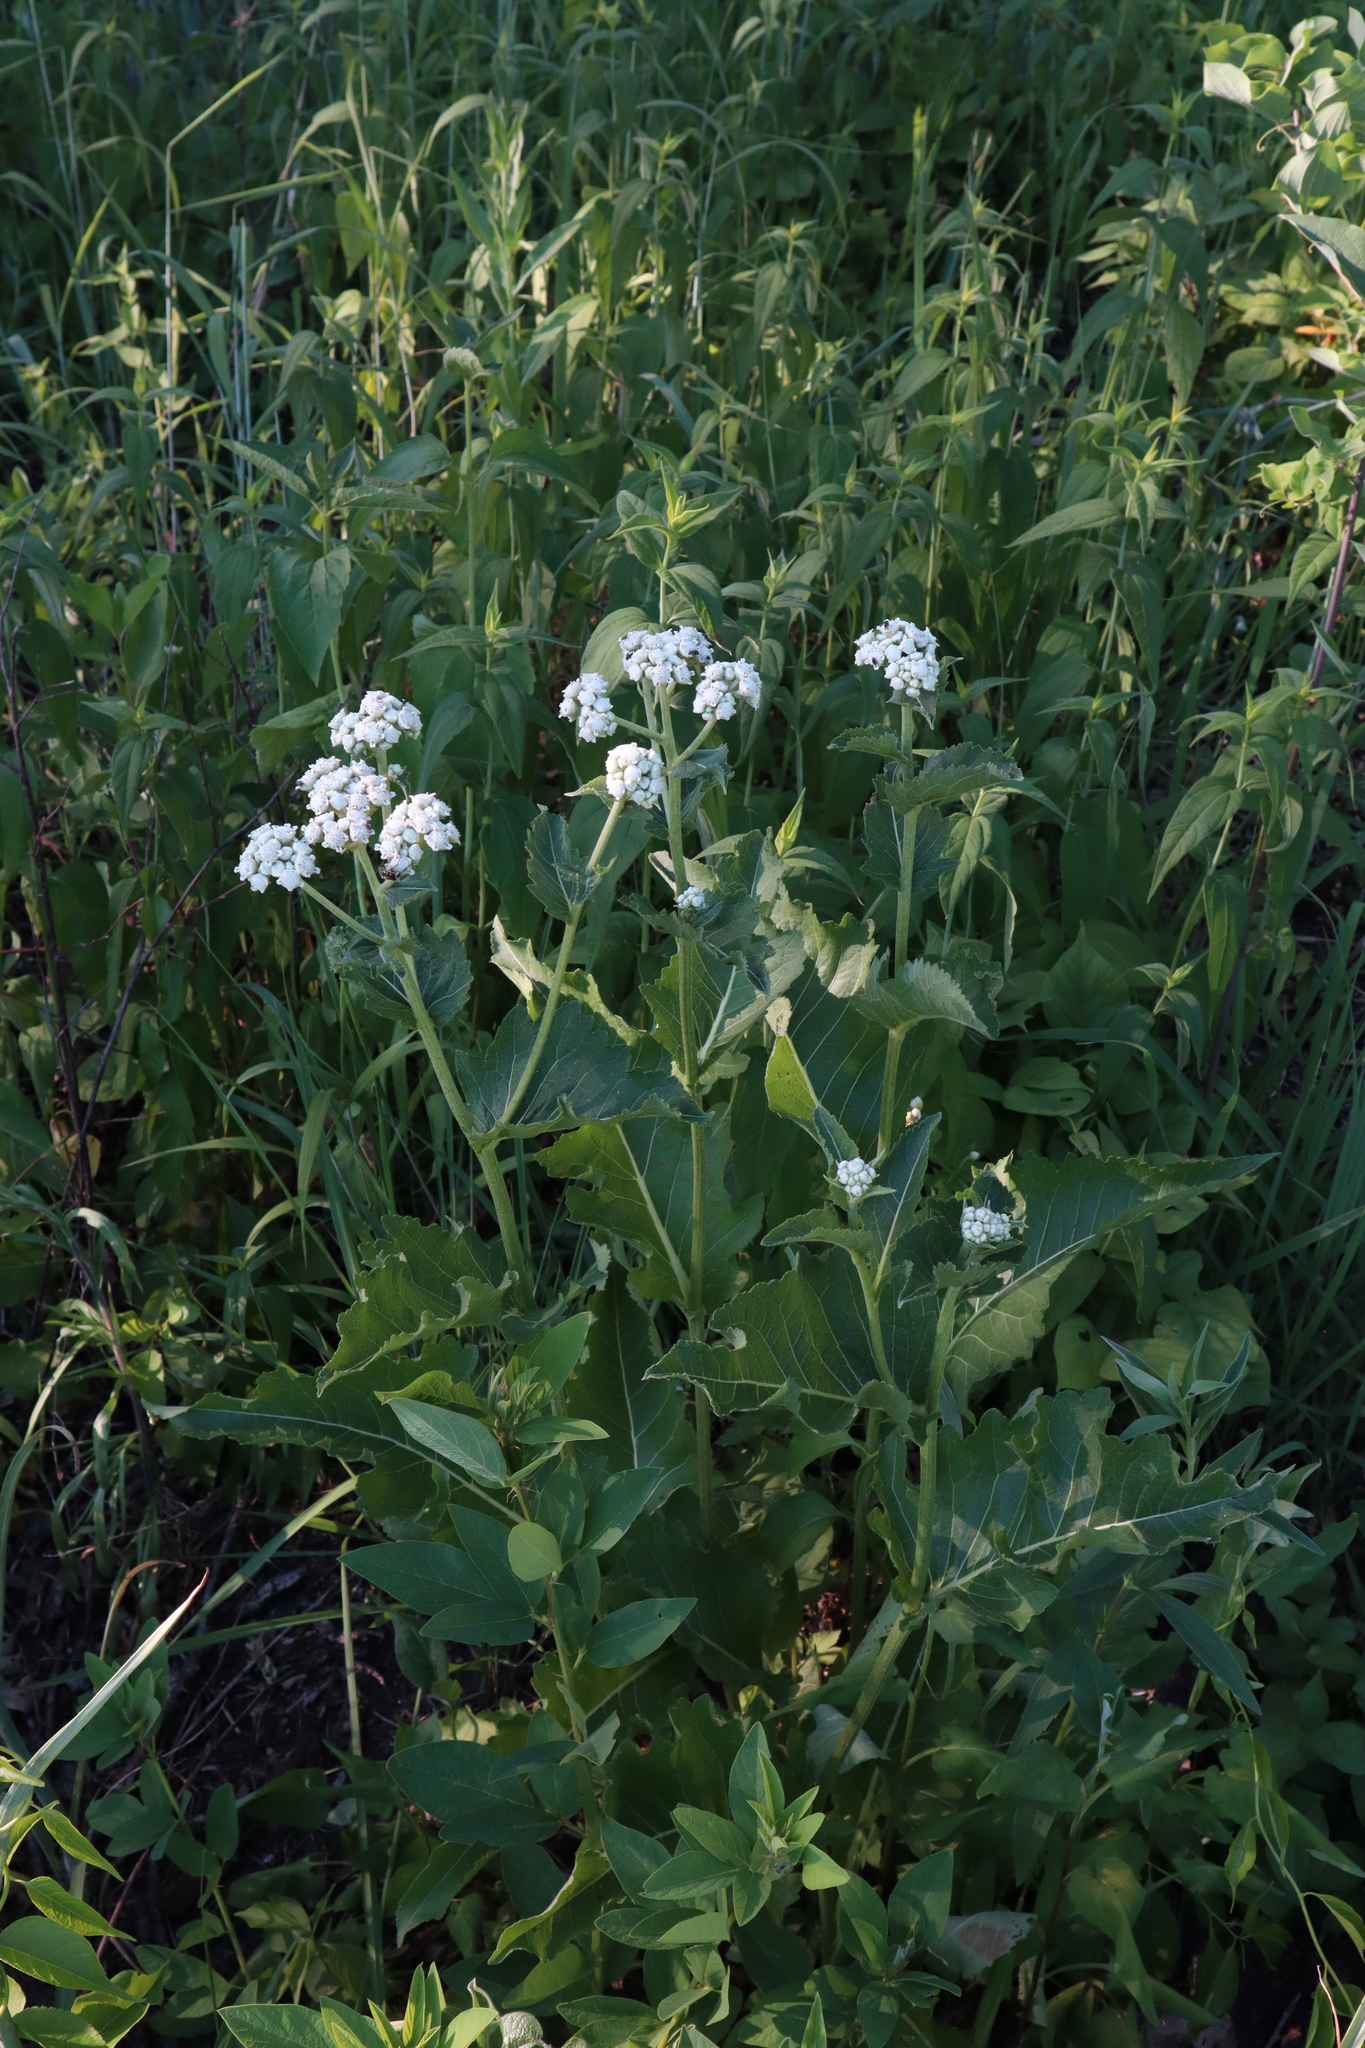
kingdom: Plantae
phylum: Tracheophyta
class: Magnoliopsida
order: Asterales
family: Asteraceae
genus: Parthenium
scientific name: Parthenium integrifolium
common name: American feverfew
